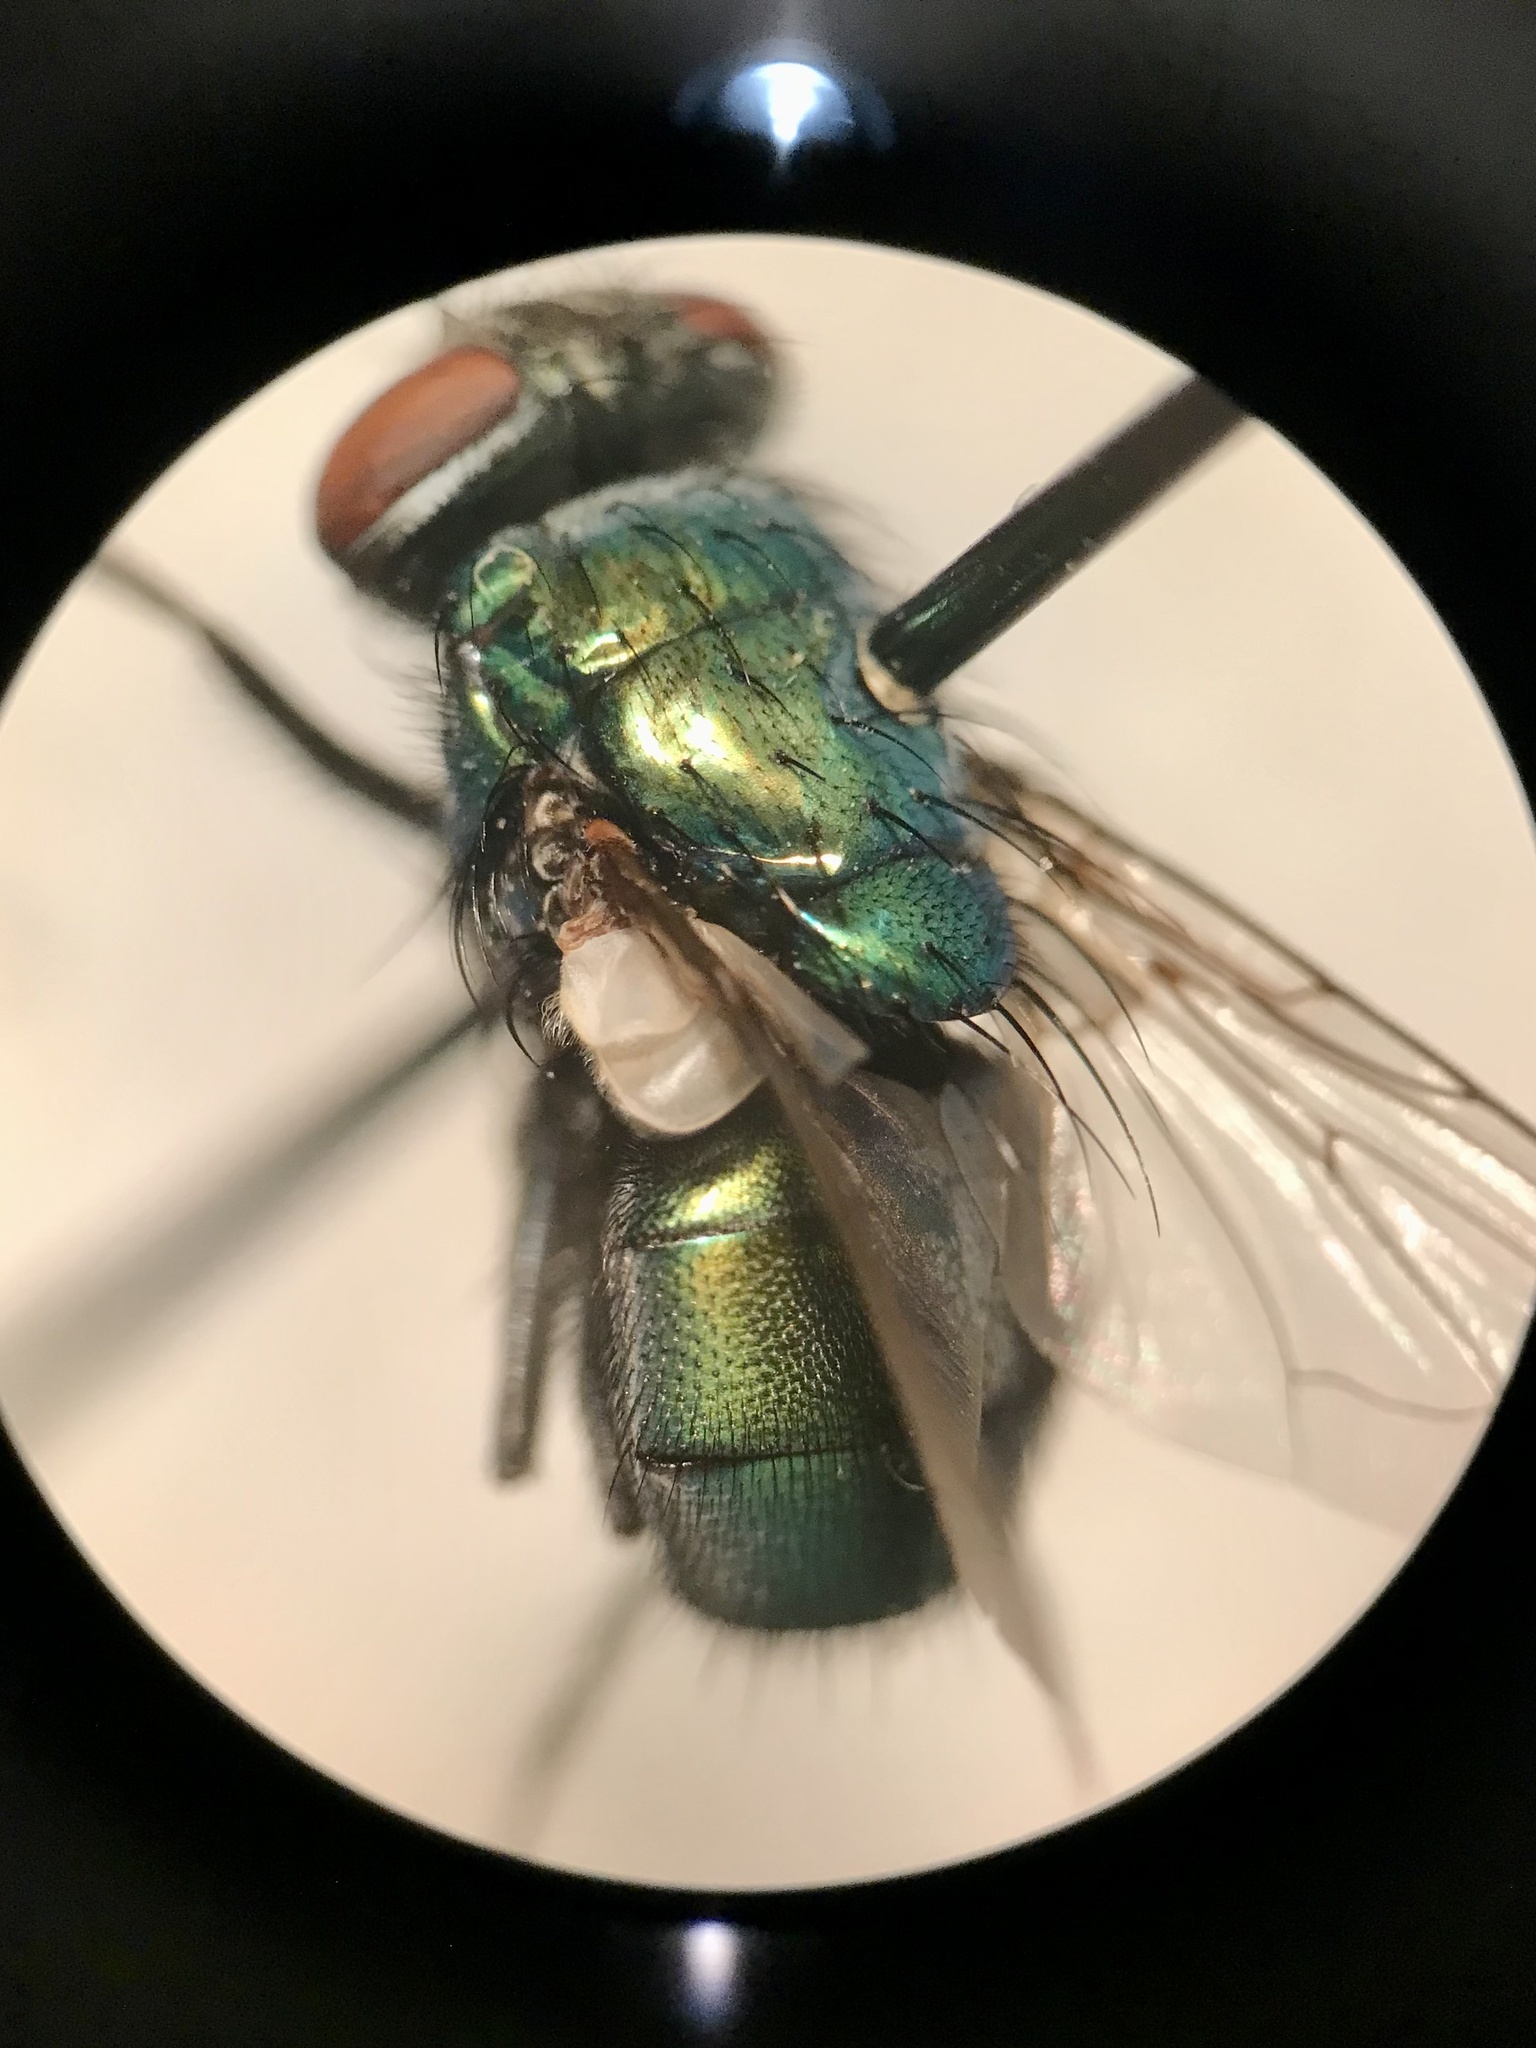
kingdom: Animalia
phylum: Arthropoda
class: Insecta
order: Diptera
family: Calliphoridae
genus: Lucilia
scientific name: Lucilia sericata
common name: Blow fly
